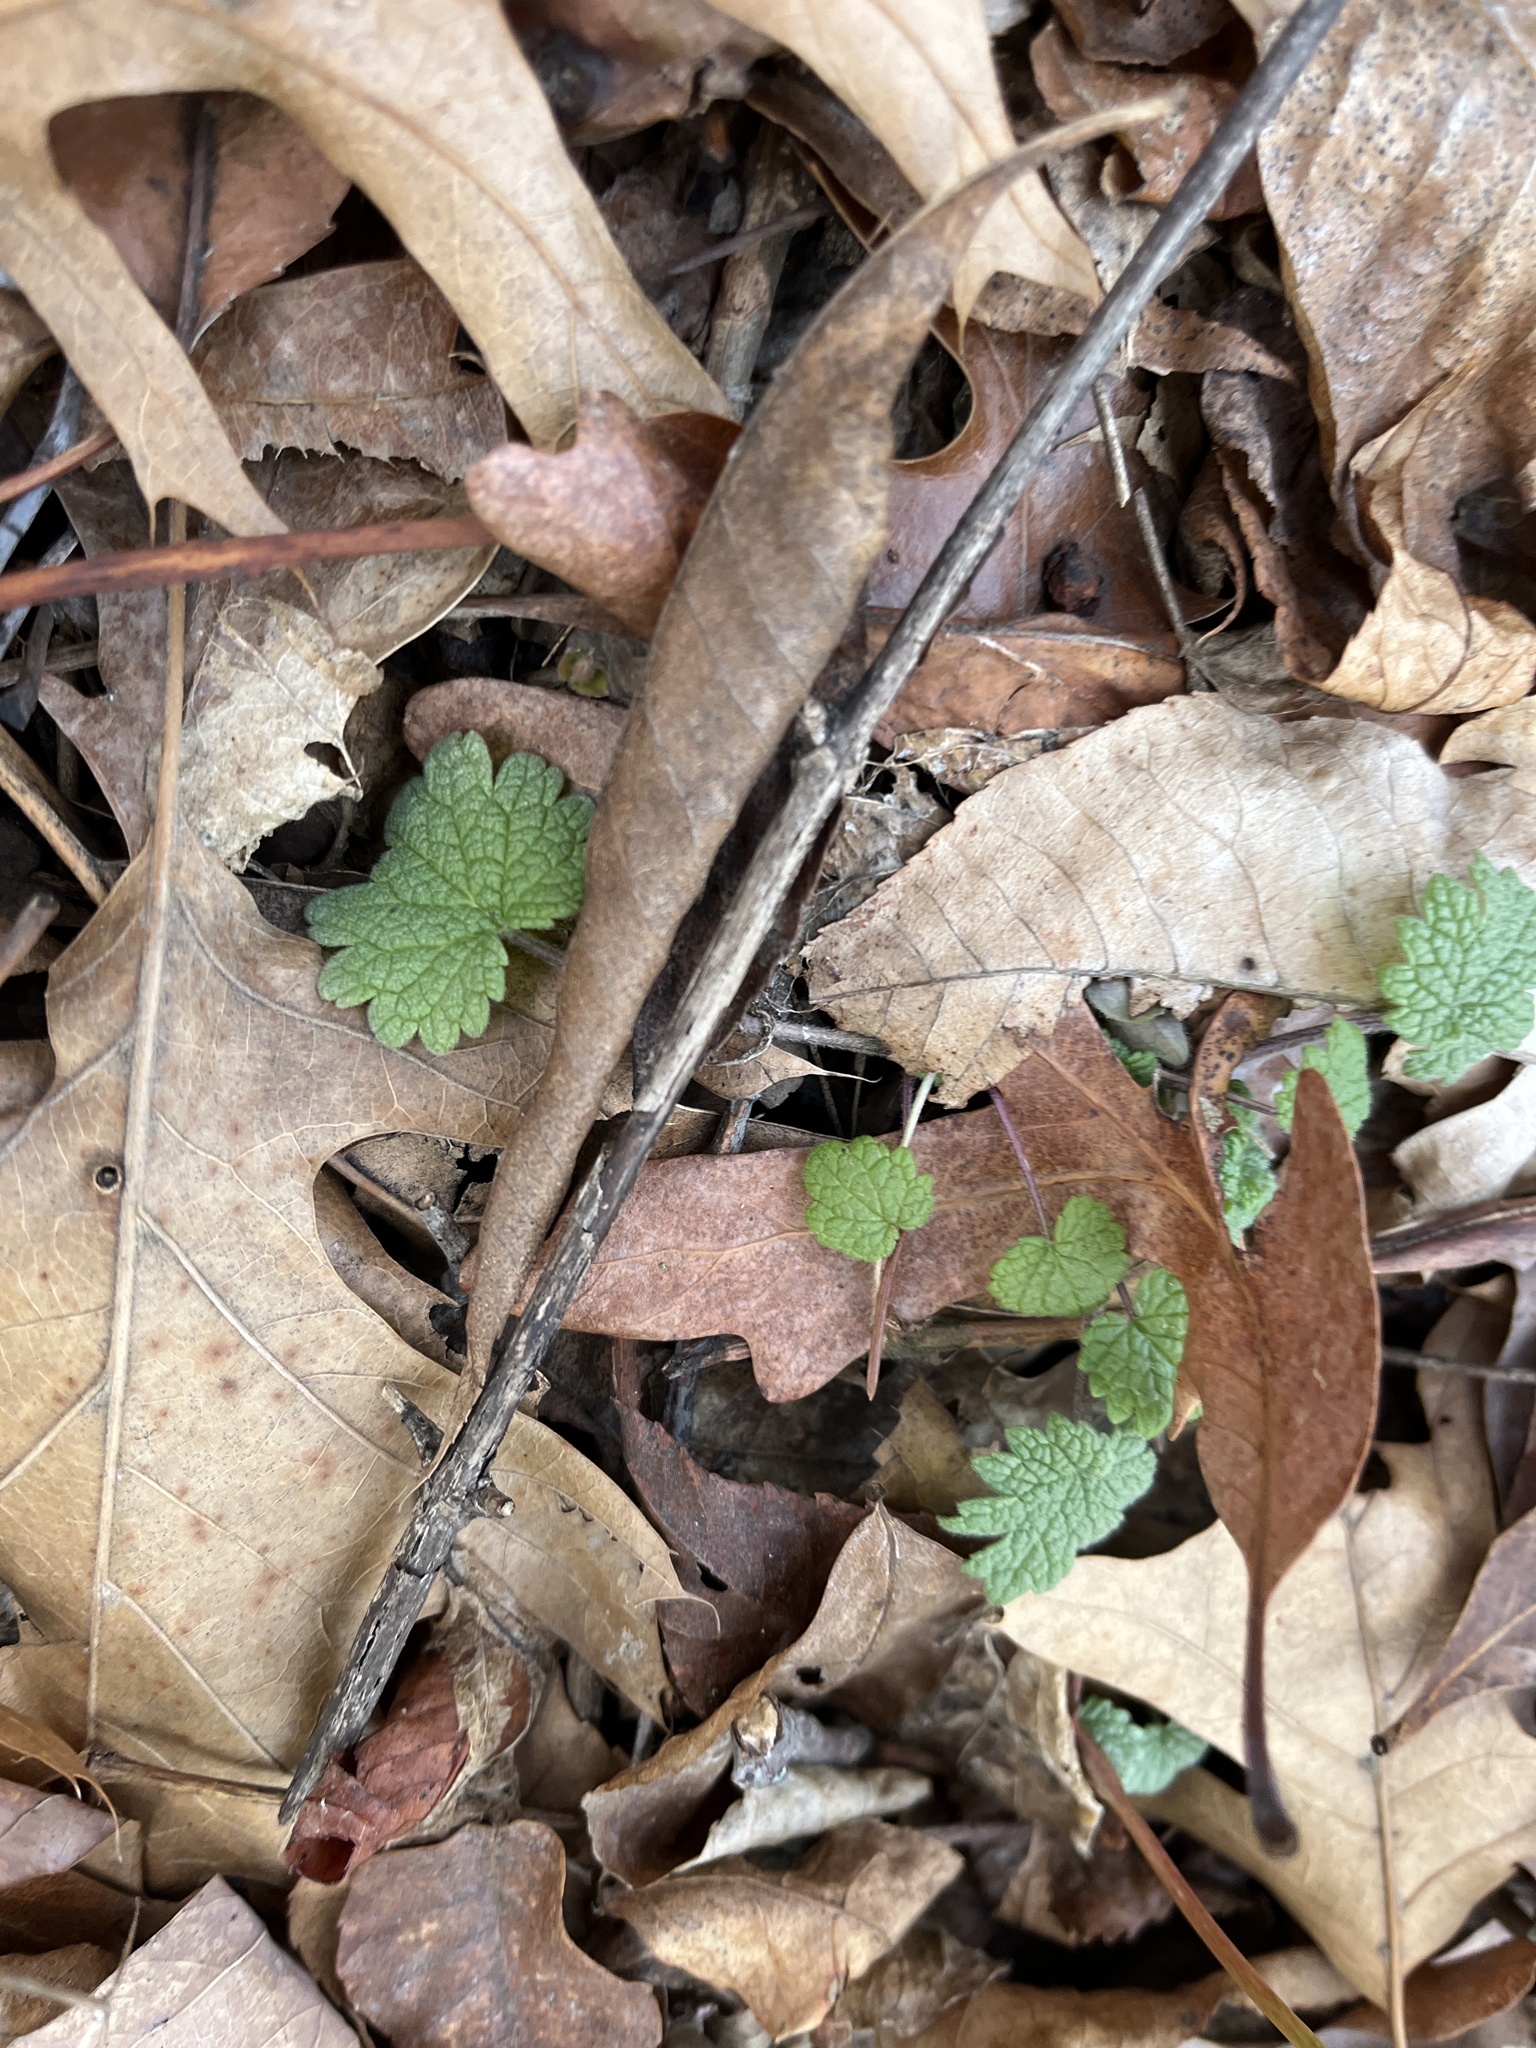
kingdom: Plantae
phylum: Tracheophyta
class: Magnoliopsida
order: Lamiales
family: Lamiaceae
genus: Leonurus
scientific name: Leonurus cardiaca
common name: Motherwort
